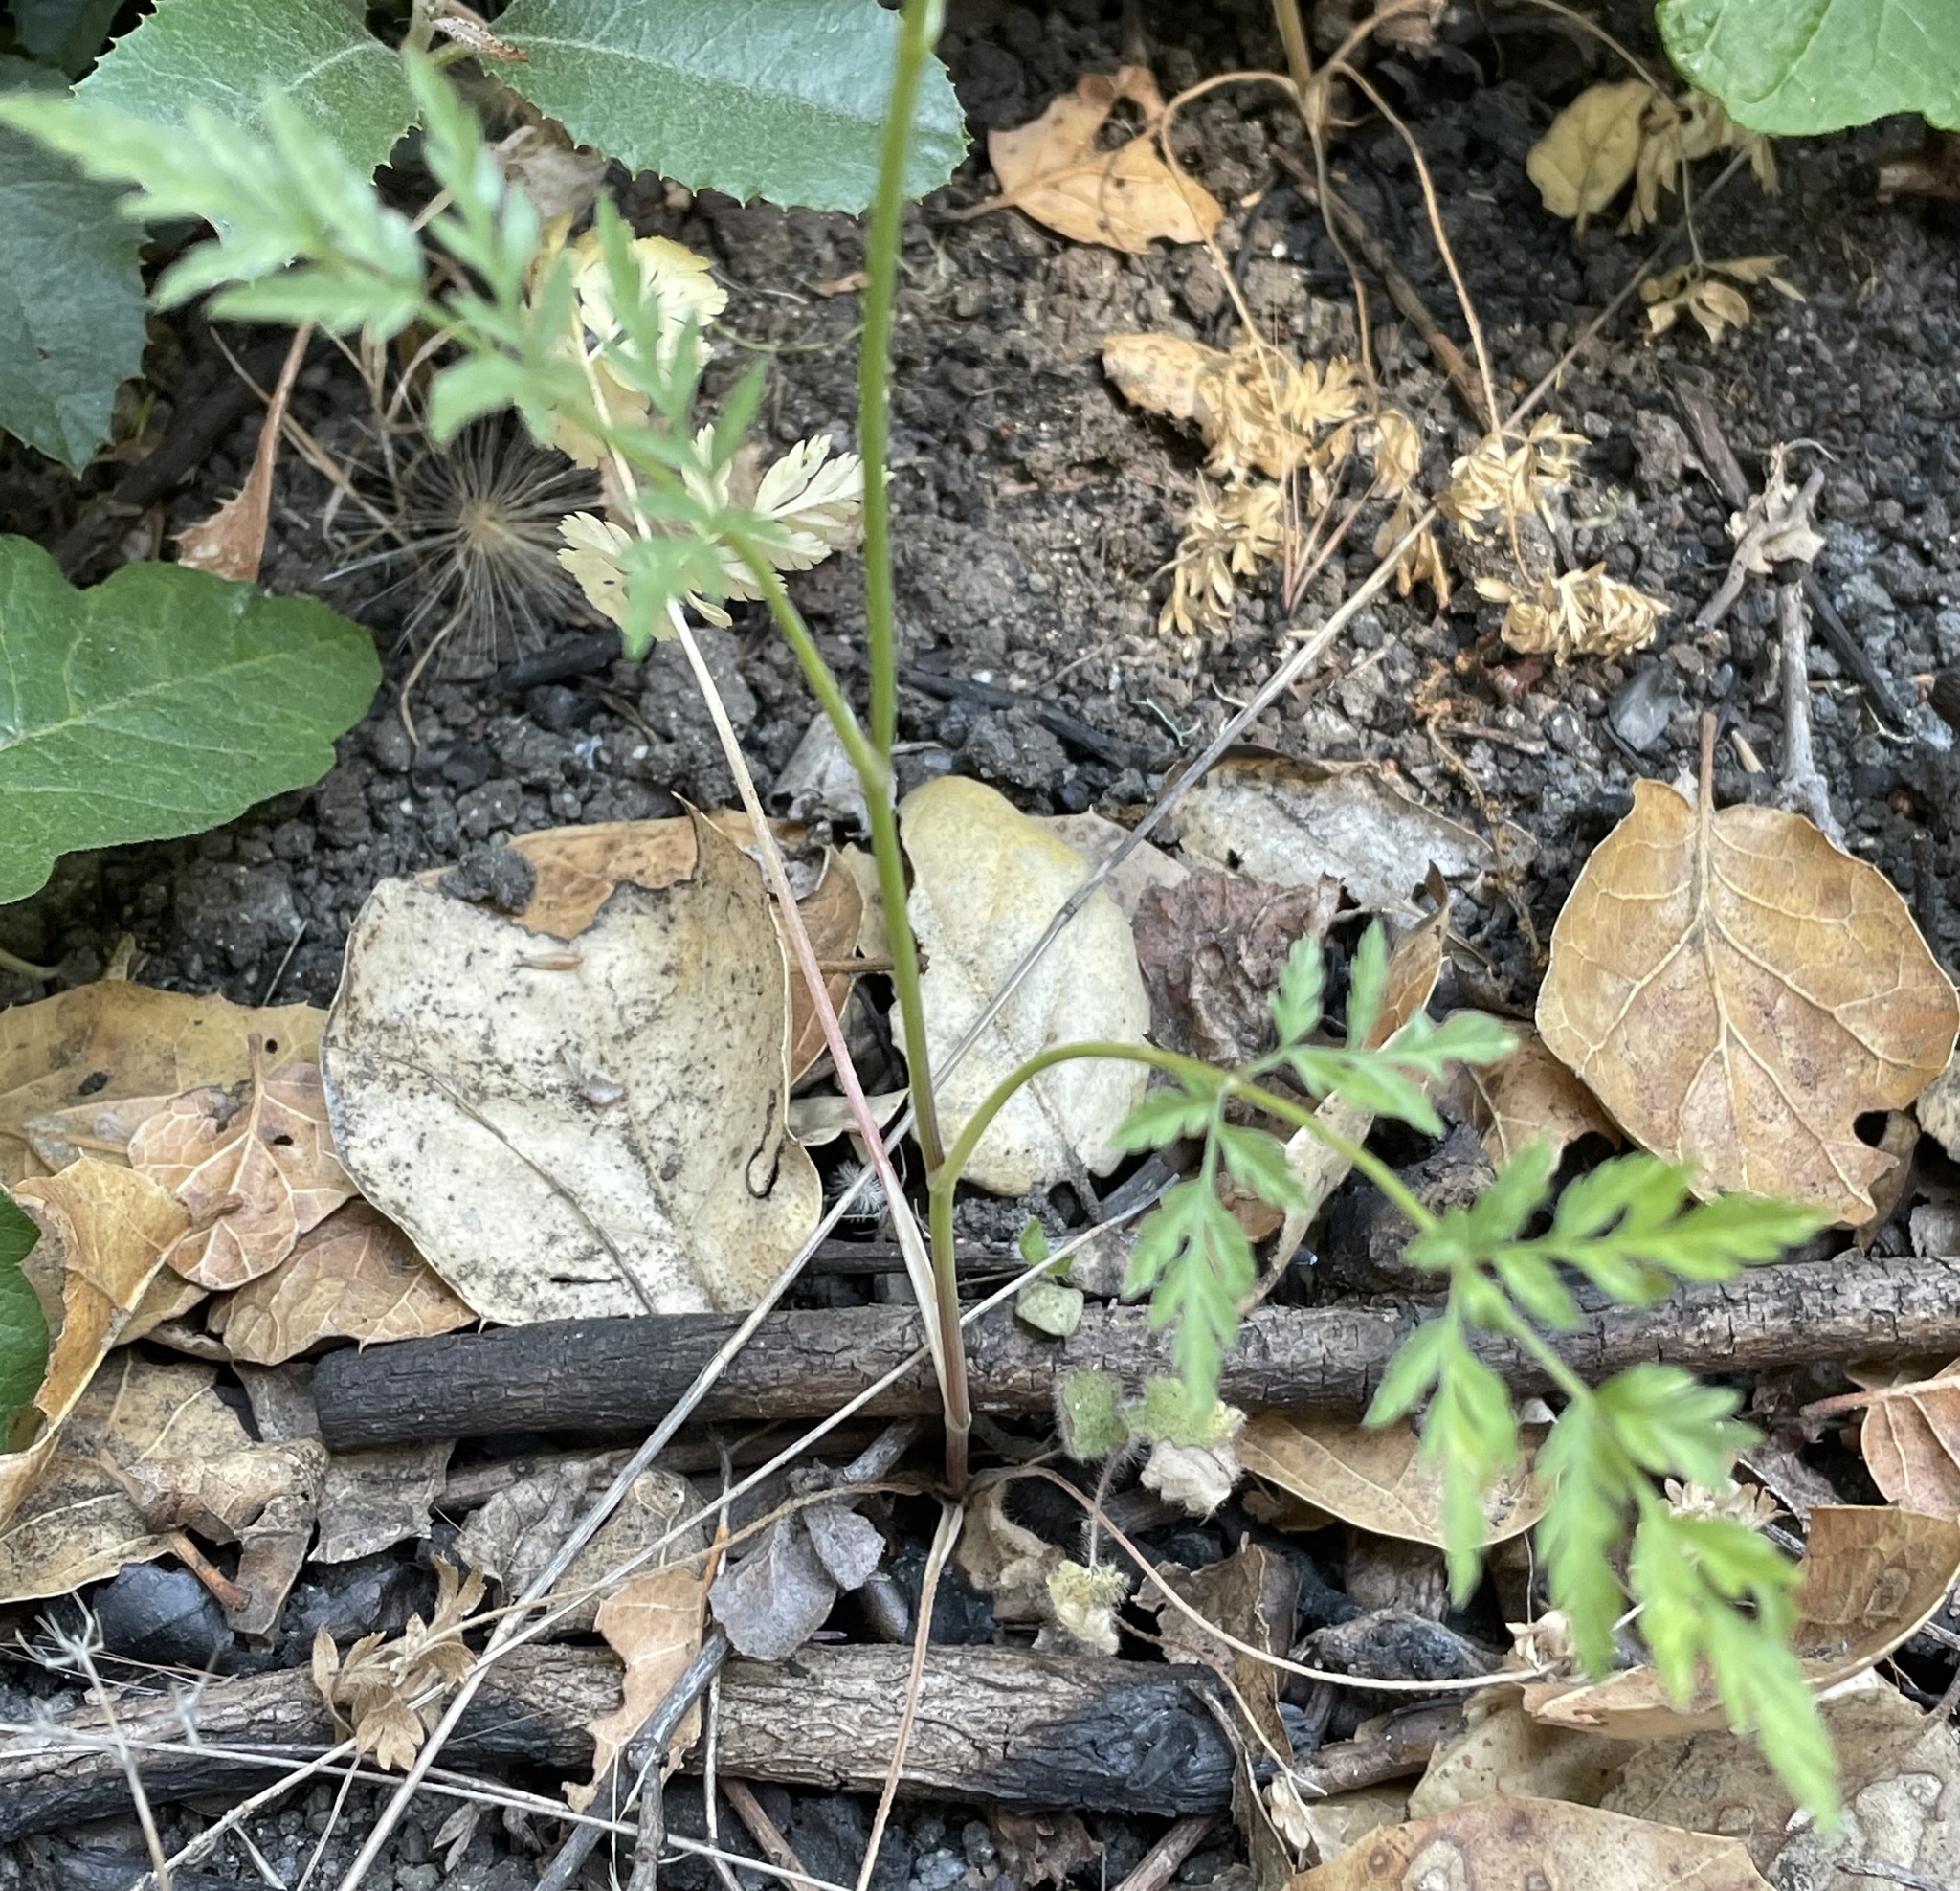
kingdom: Plantae
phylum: Tracheophyta
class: Magnoliopsida
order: Apiales
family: Apiaceae
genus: Torilis
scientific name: Torilis nodosa
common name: Knotted hedge-parsley
